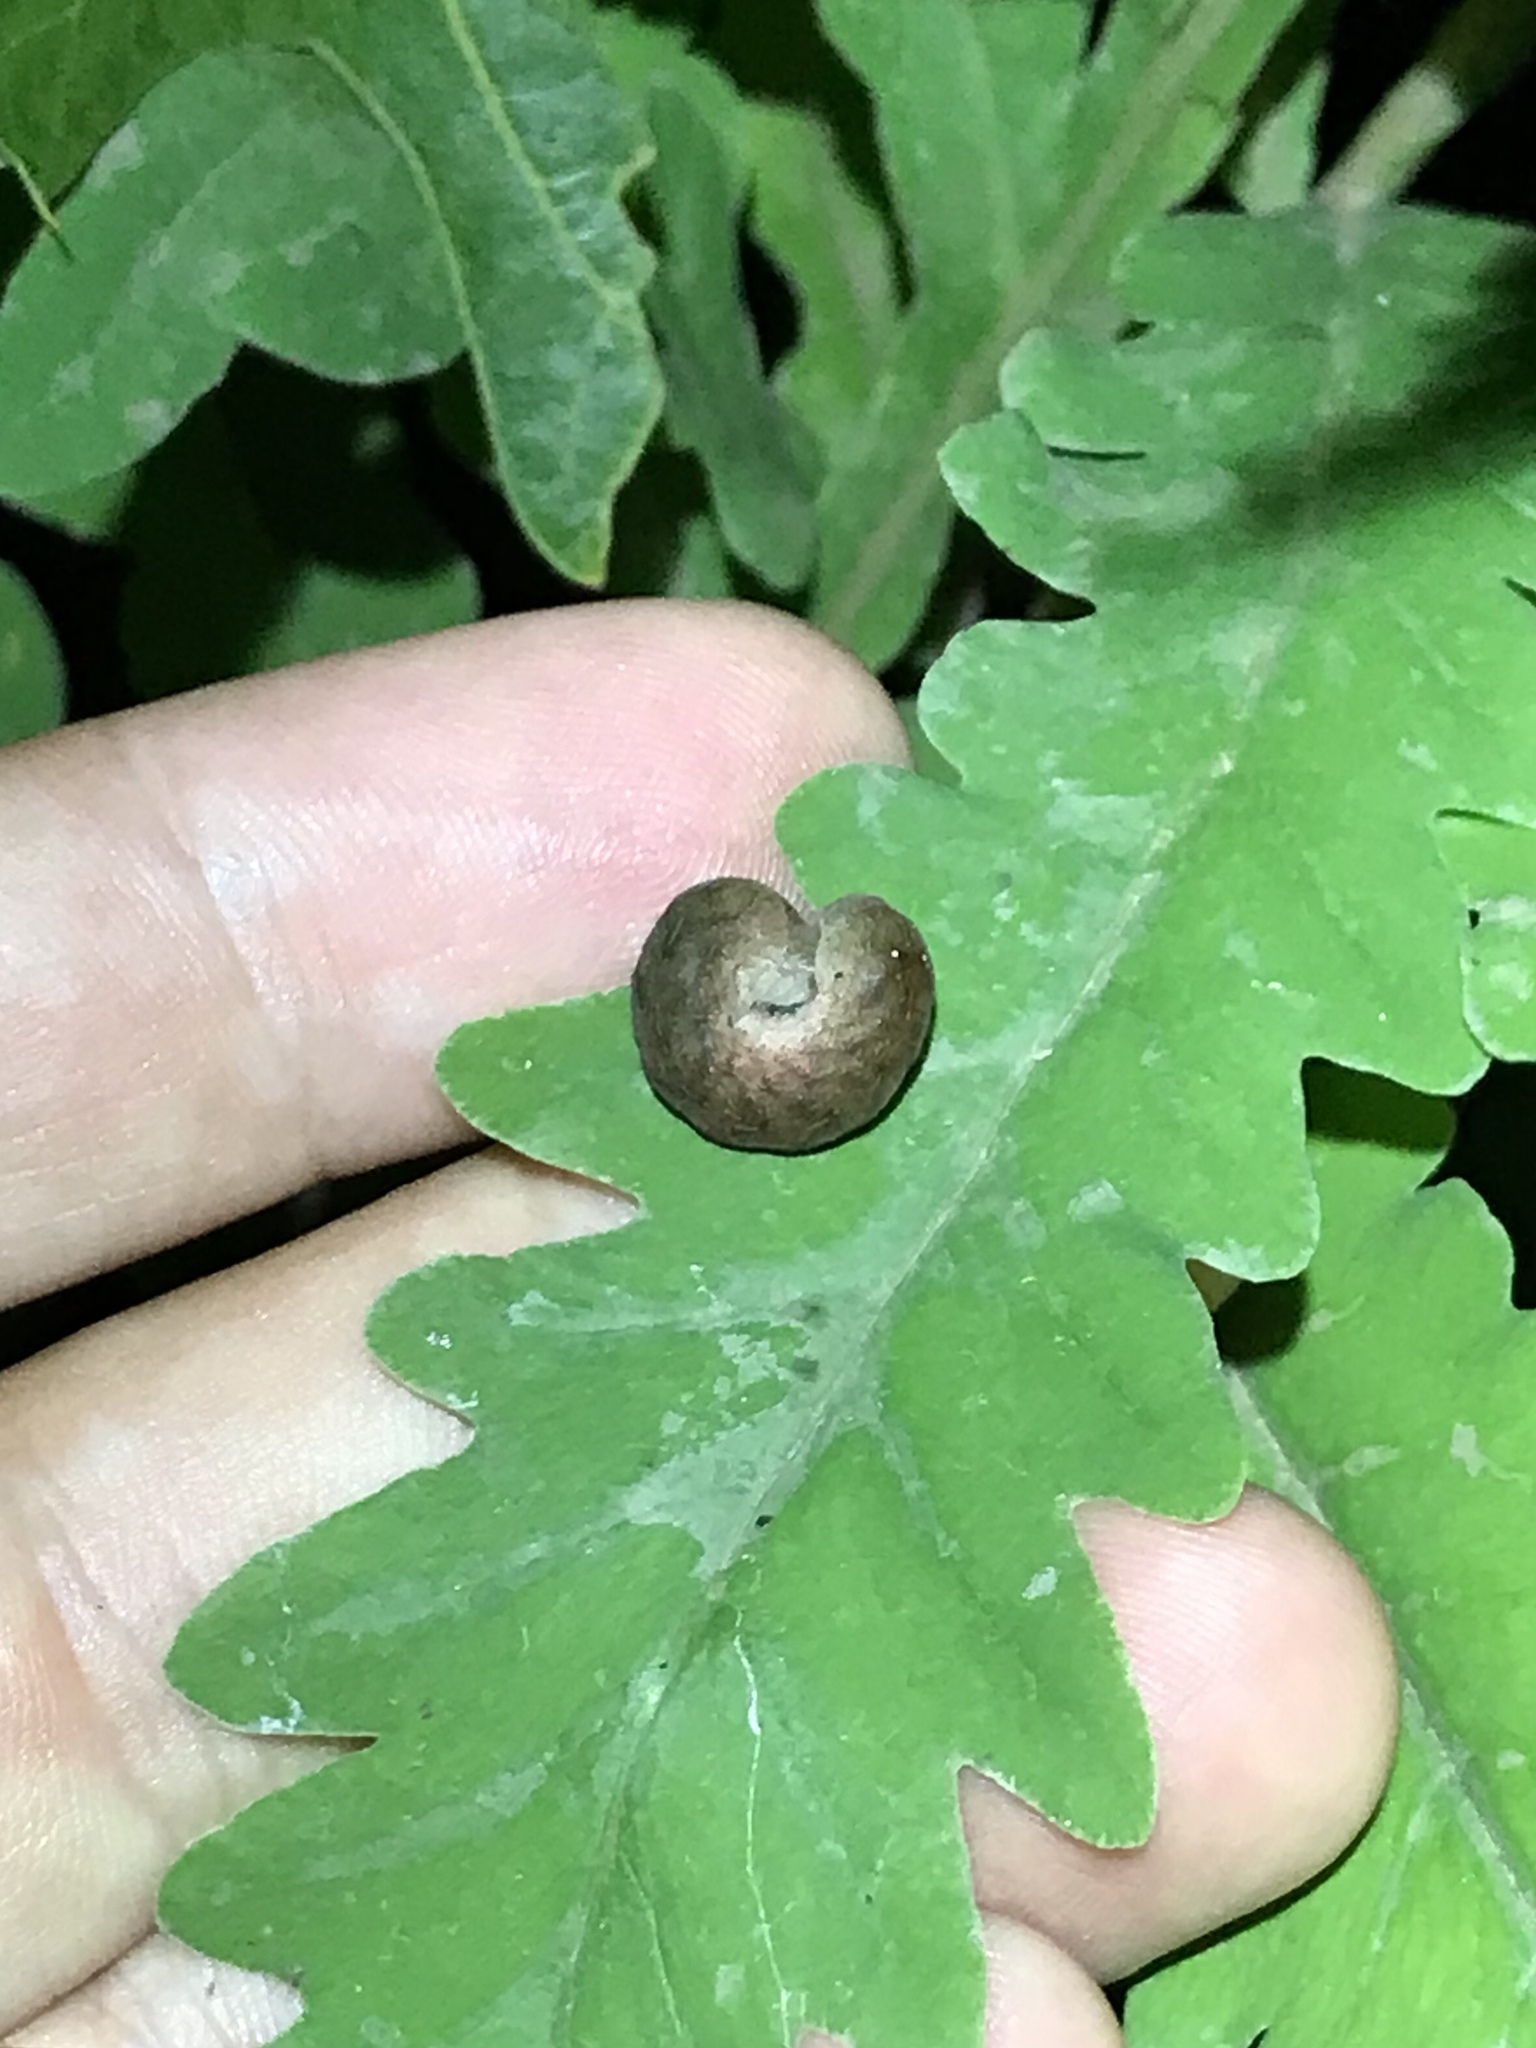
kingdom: Animalia
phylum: Arthropoda
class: Insecta
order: Lepidoptera
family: Noctuidae
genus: Euplexia
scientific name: Euplexia benesimilis
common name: American angle shades
